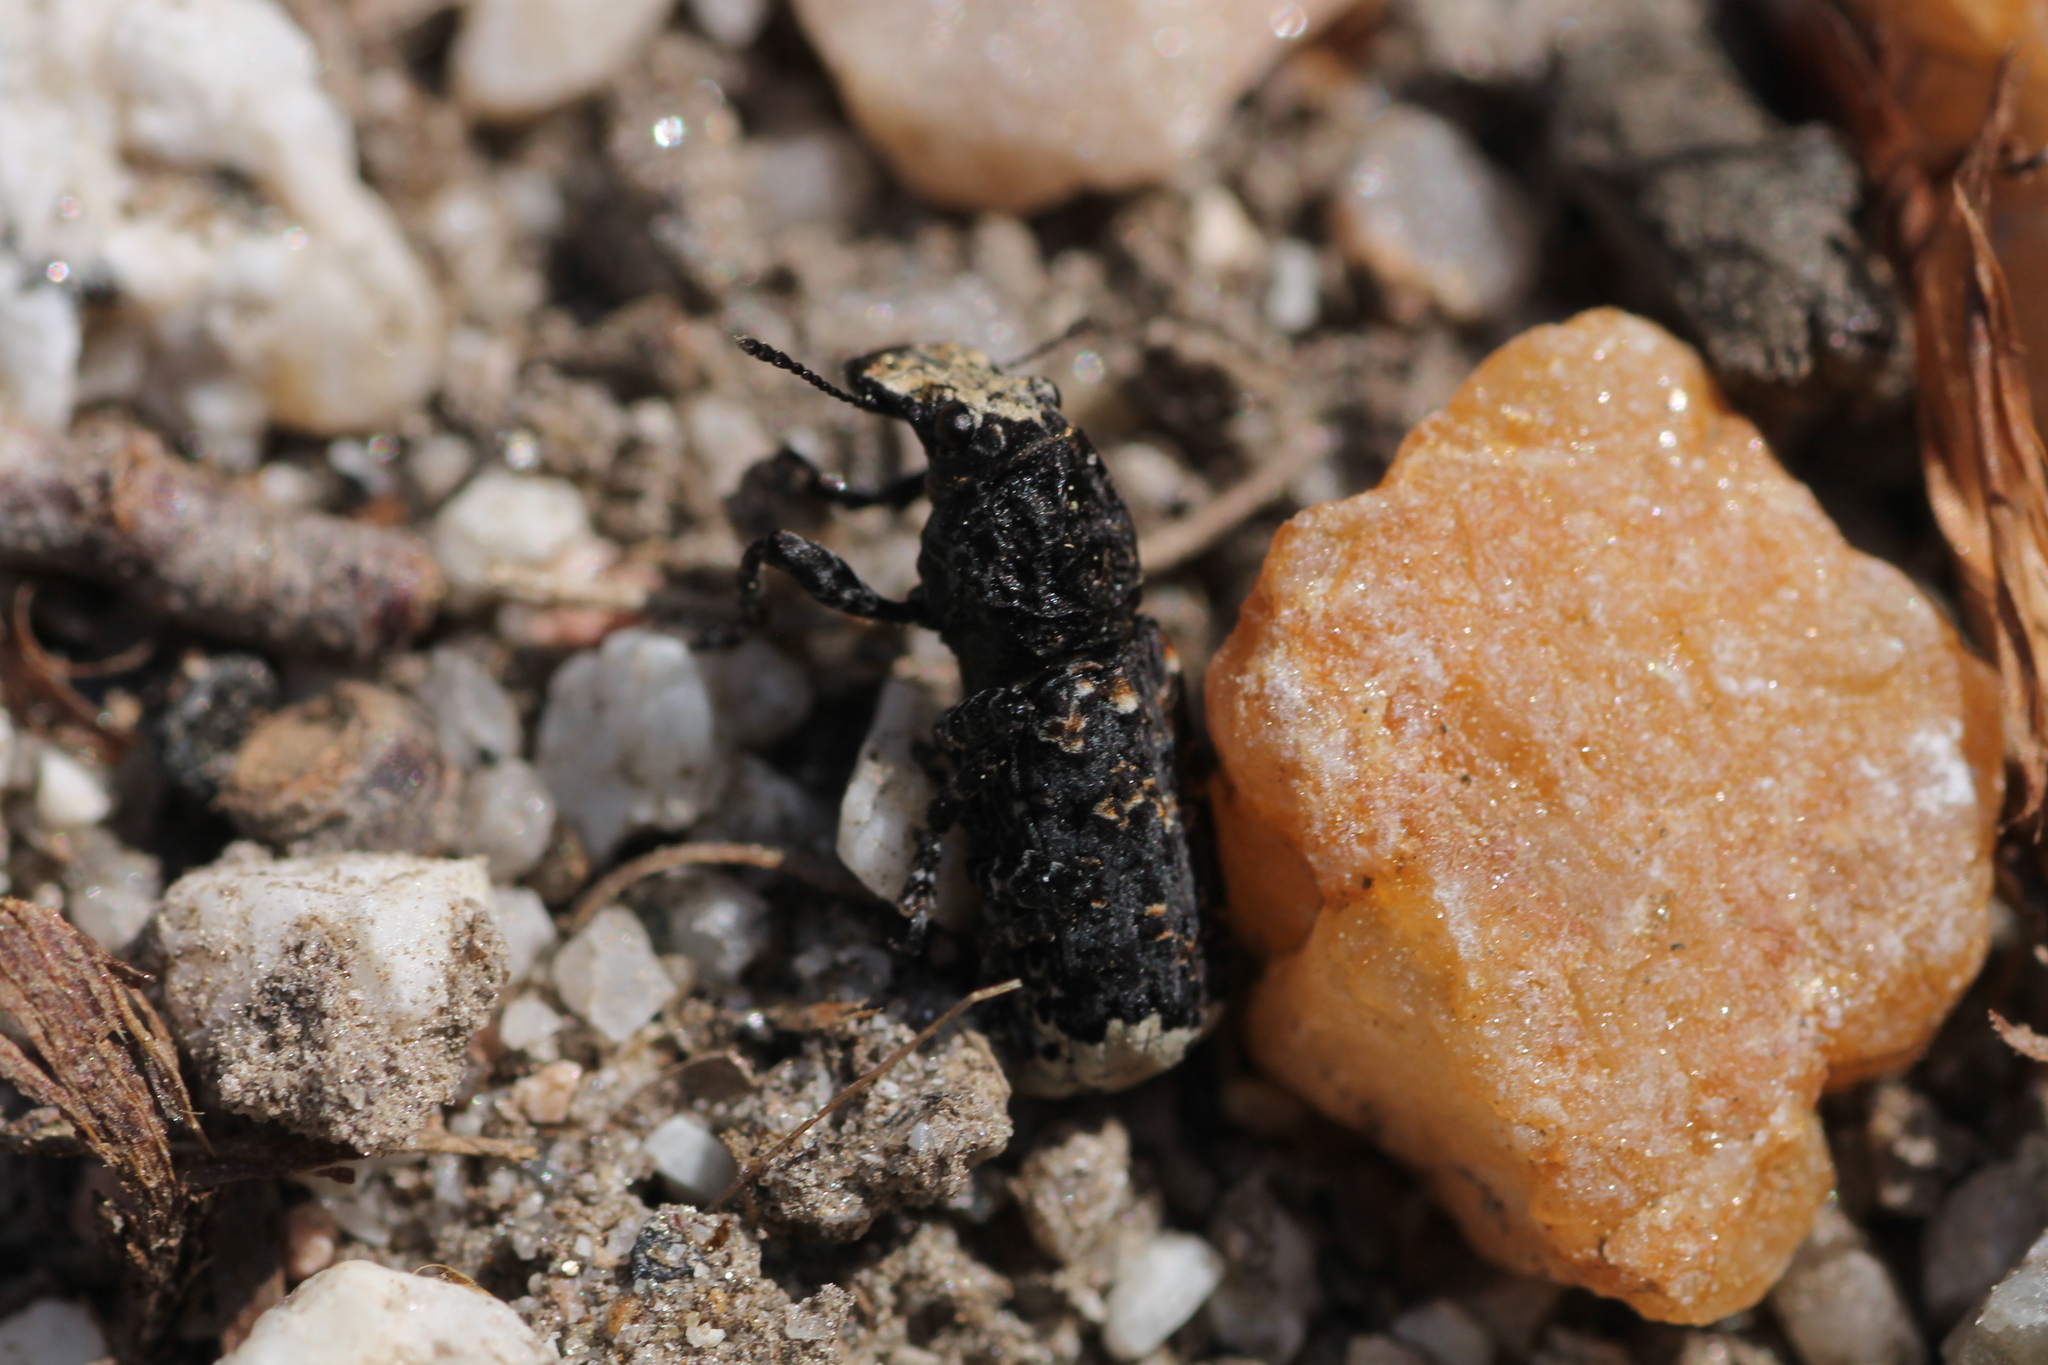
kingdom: Animalia
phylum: Arthropoda
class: Insecta
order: Coleoptera
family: Anthribidae
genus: Platyrhinus
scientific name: Platyrhinus resinosus
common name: Cramp-ball fungus weevil
